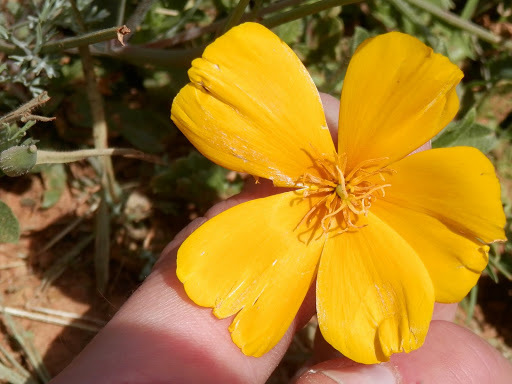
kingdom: Plantae
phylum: Tracheophyta
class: Magnoliopsida
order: Ranunculales
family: Papaveraceae
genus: Eschscholzia
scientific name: Eschscholzia caespitosa
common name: Tufted california-poppy
